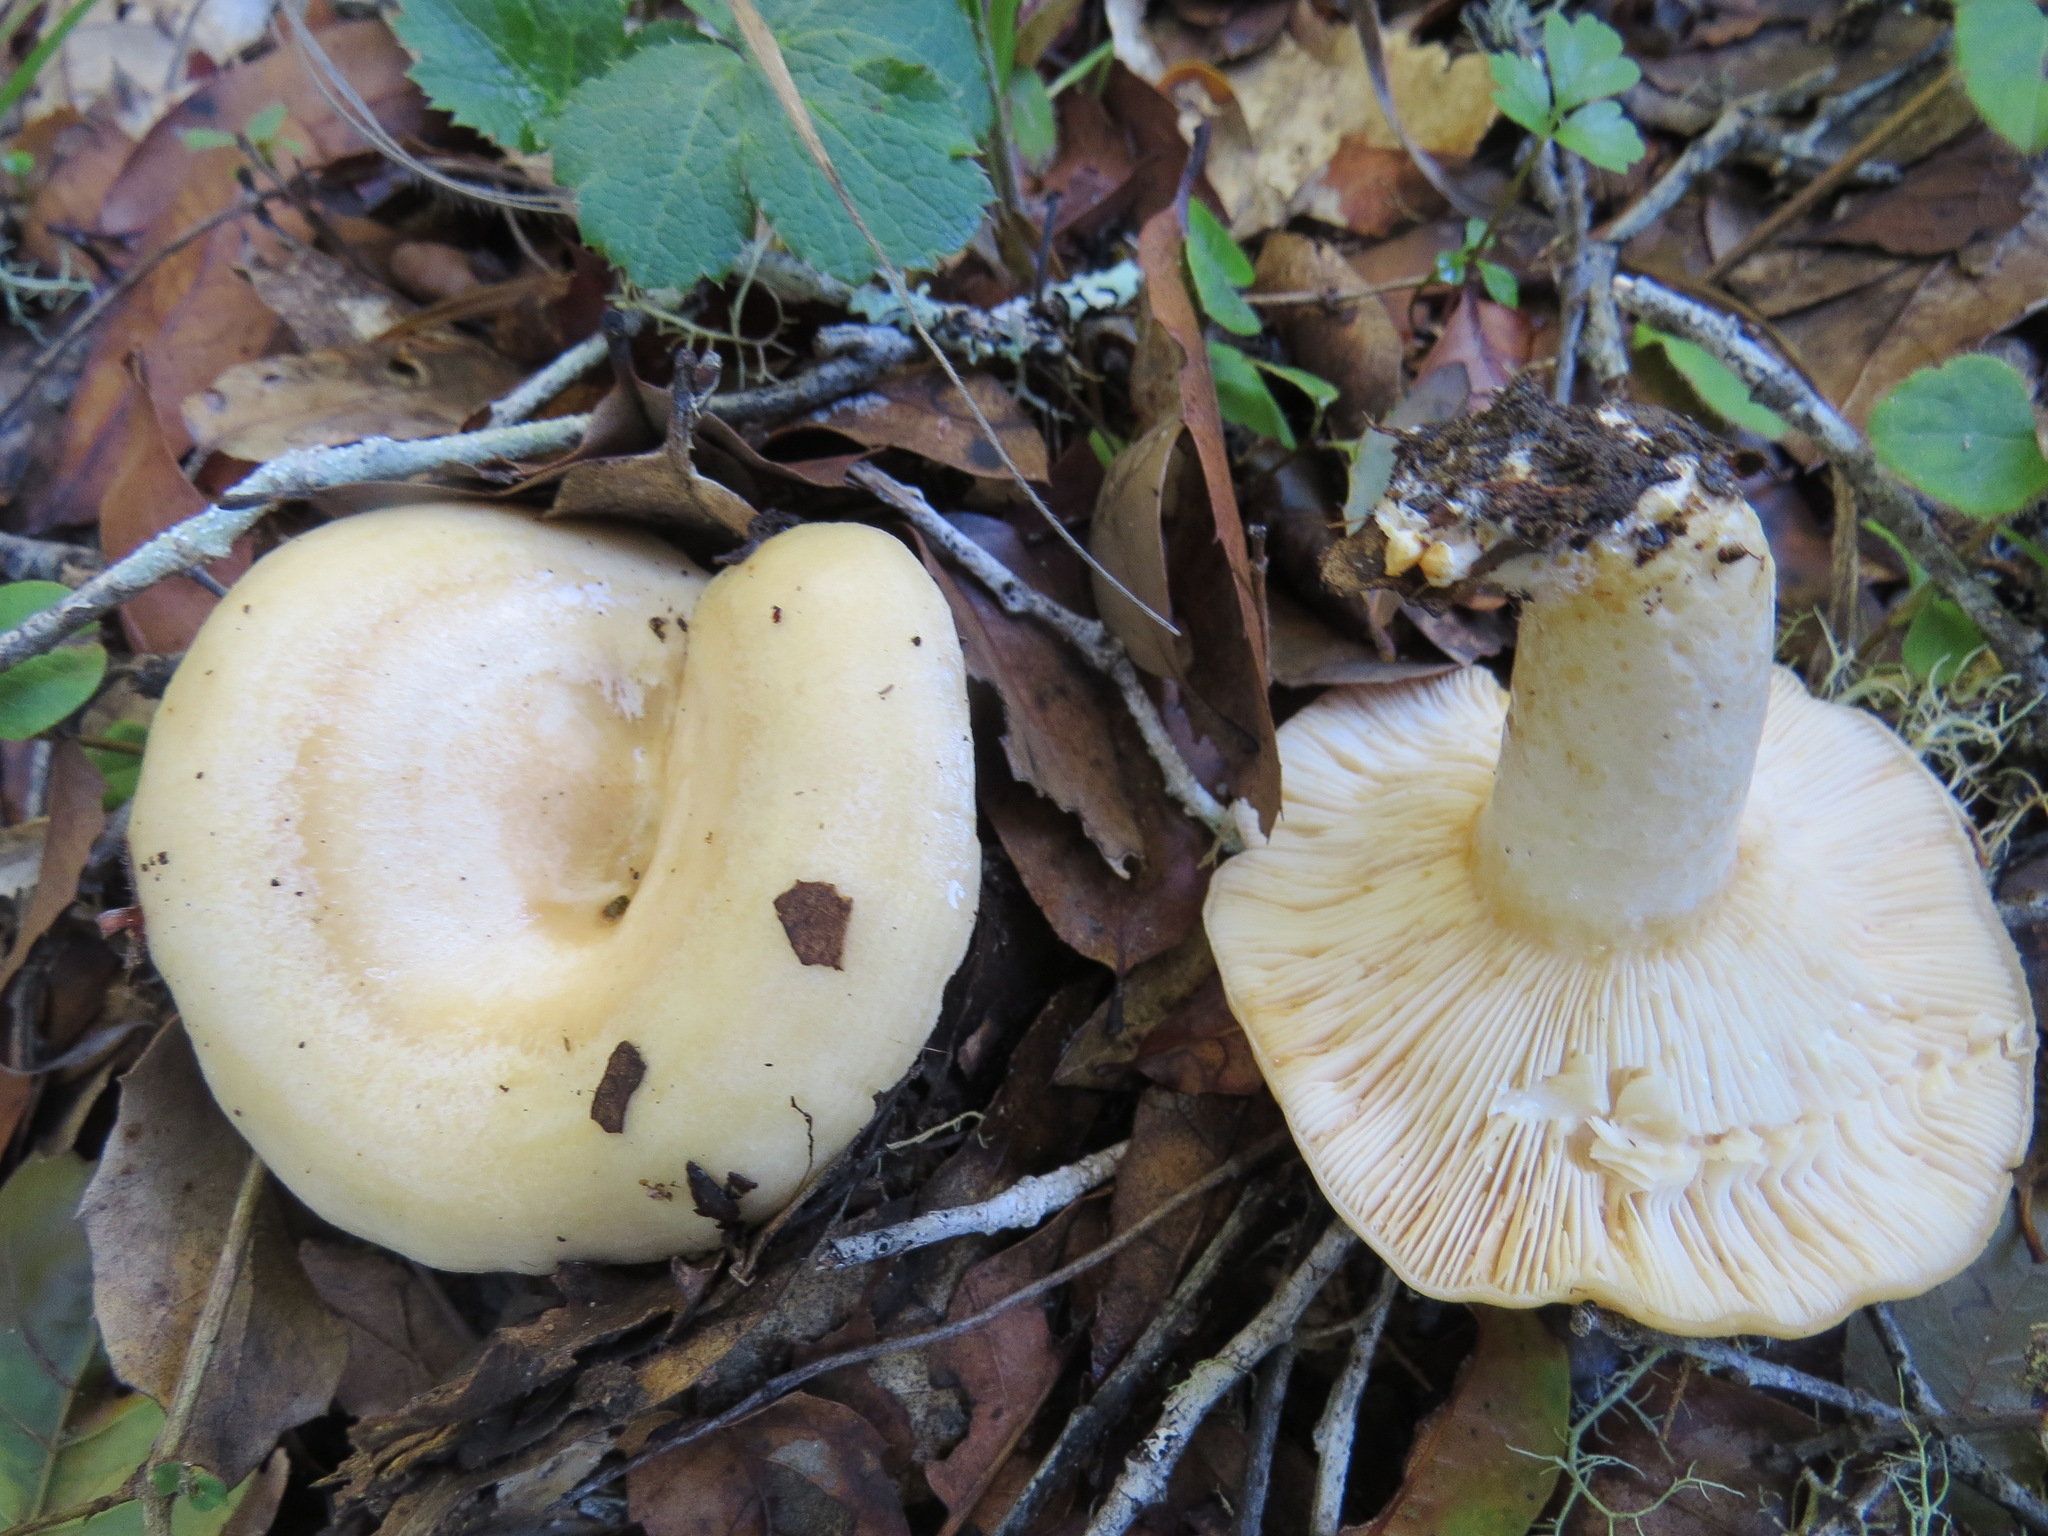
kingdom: Fungi
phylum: Basidiomycota
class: Agaricomycetes
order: Russulales
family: Russulaceae
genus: Lactarius
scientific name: Lactarius alnicola
